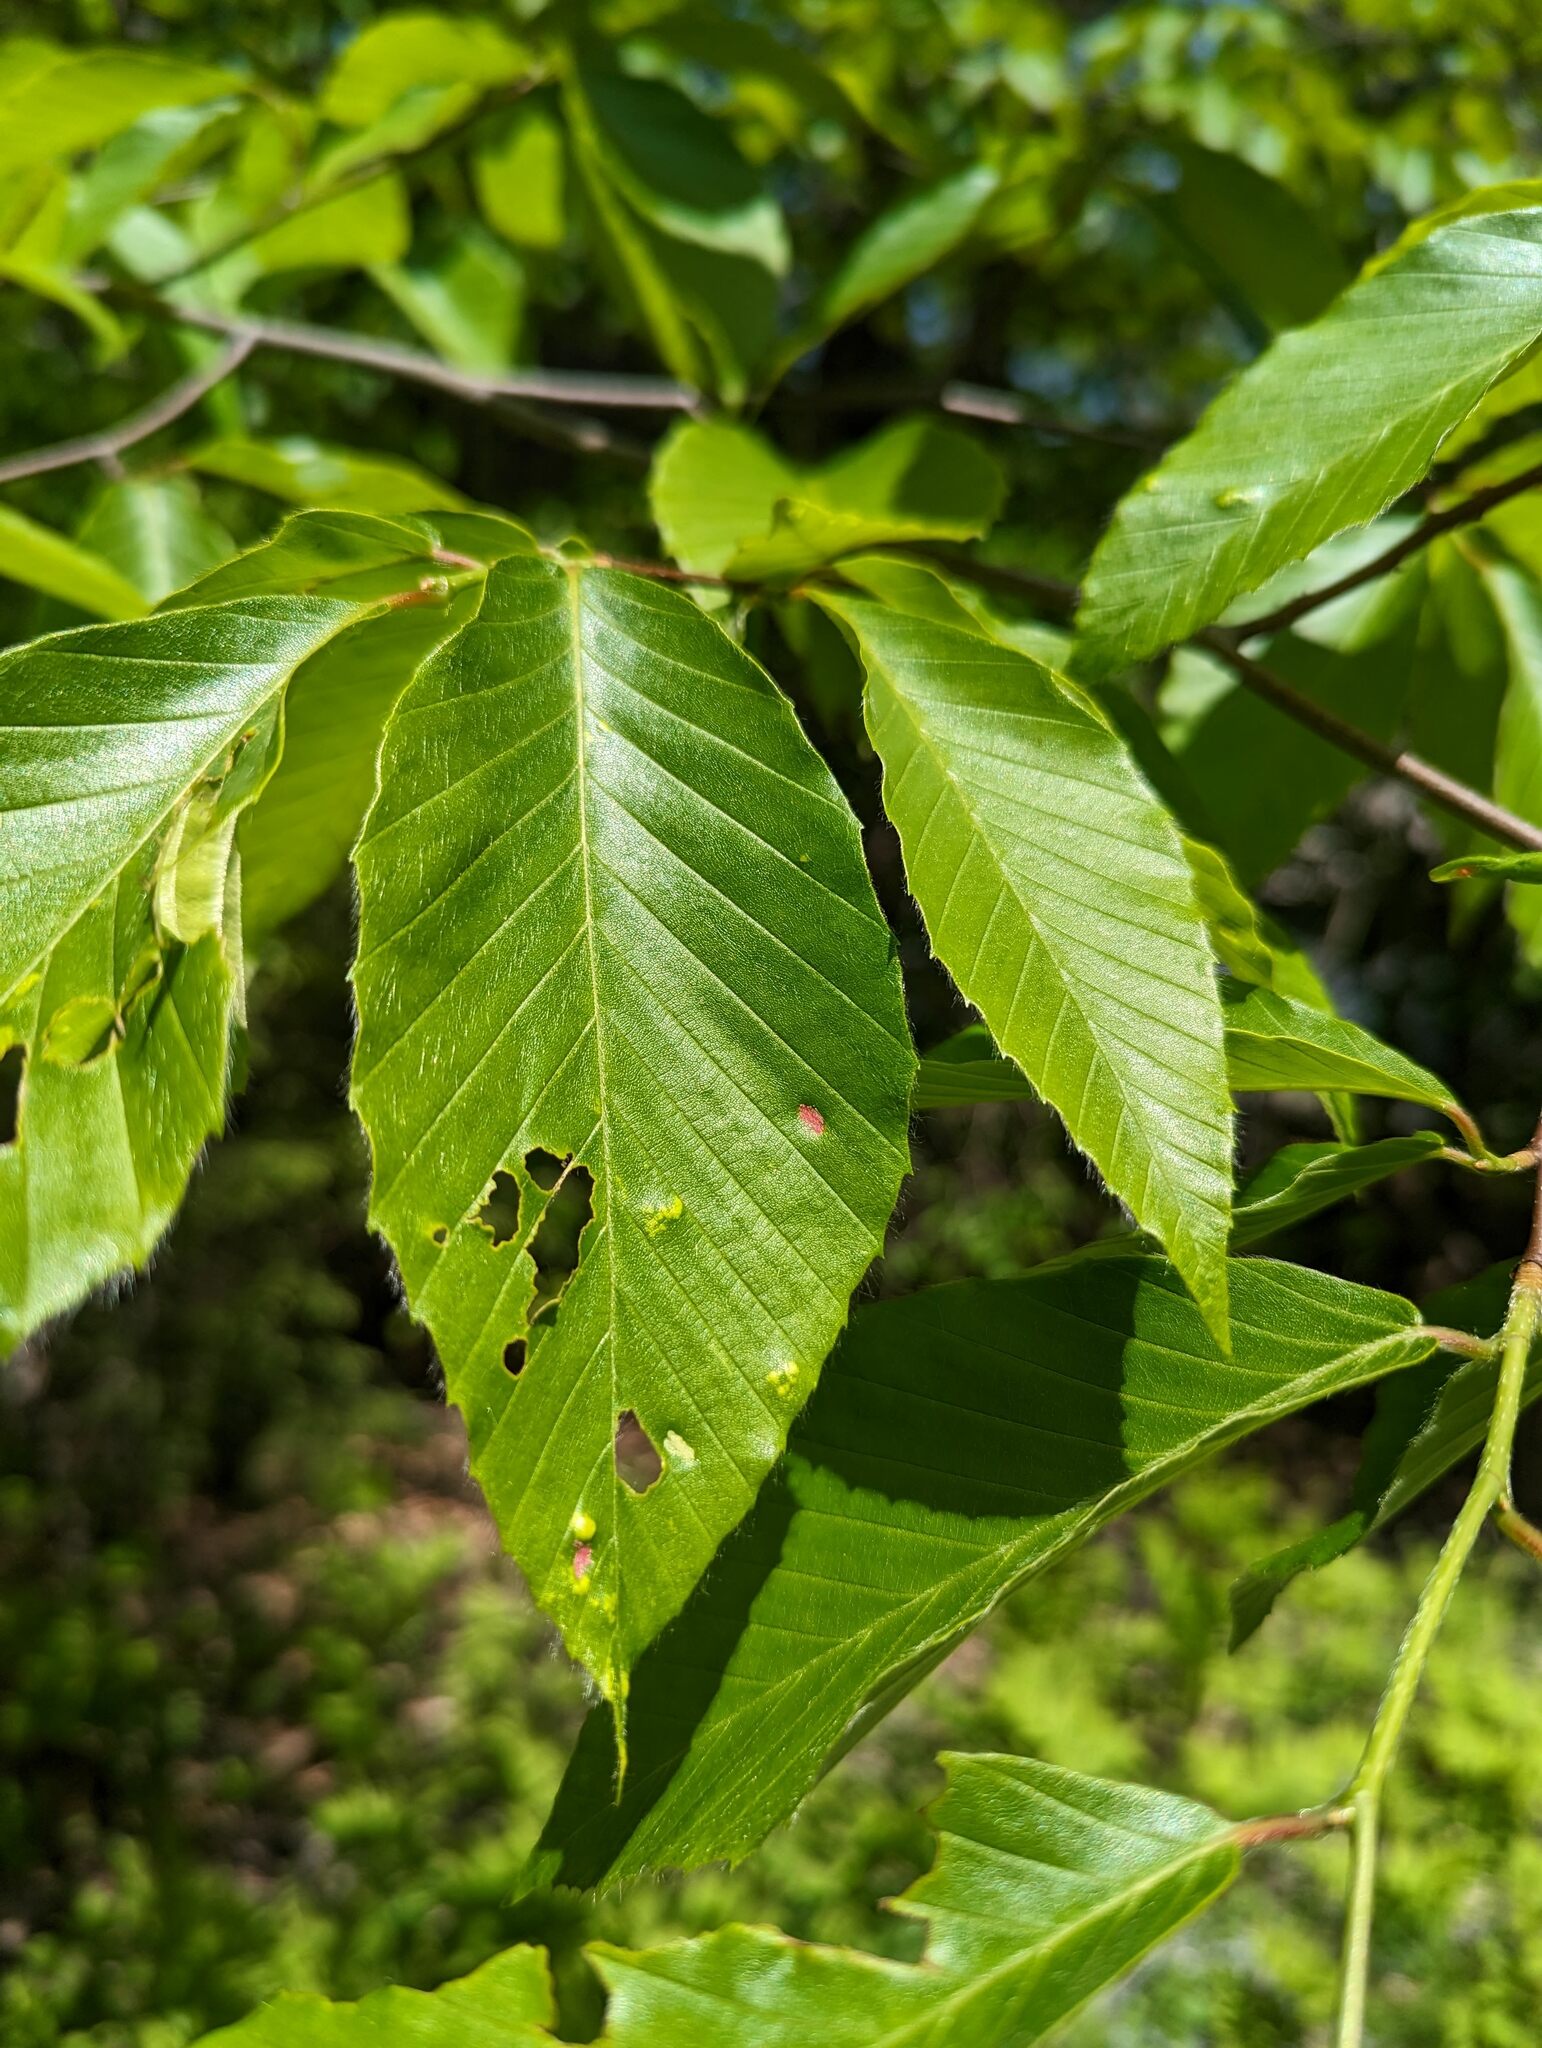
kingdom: Plantae
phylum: Tracheophyta
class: Magnoliopsida
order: Fagales
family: Fagaceae
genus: Fagus
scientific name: Fagus grandifolia
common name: American beech
